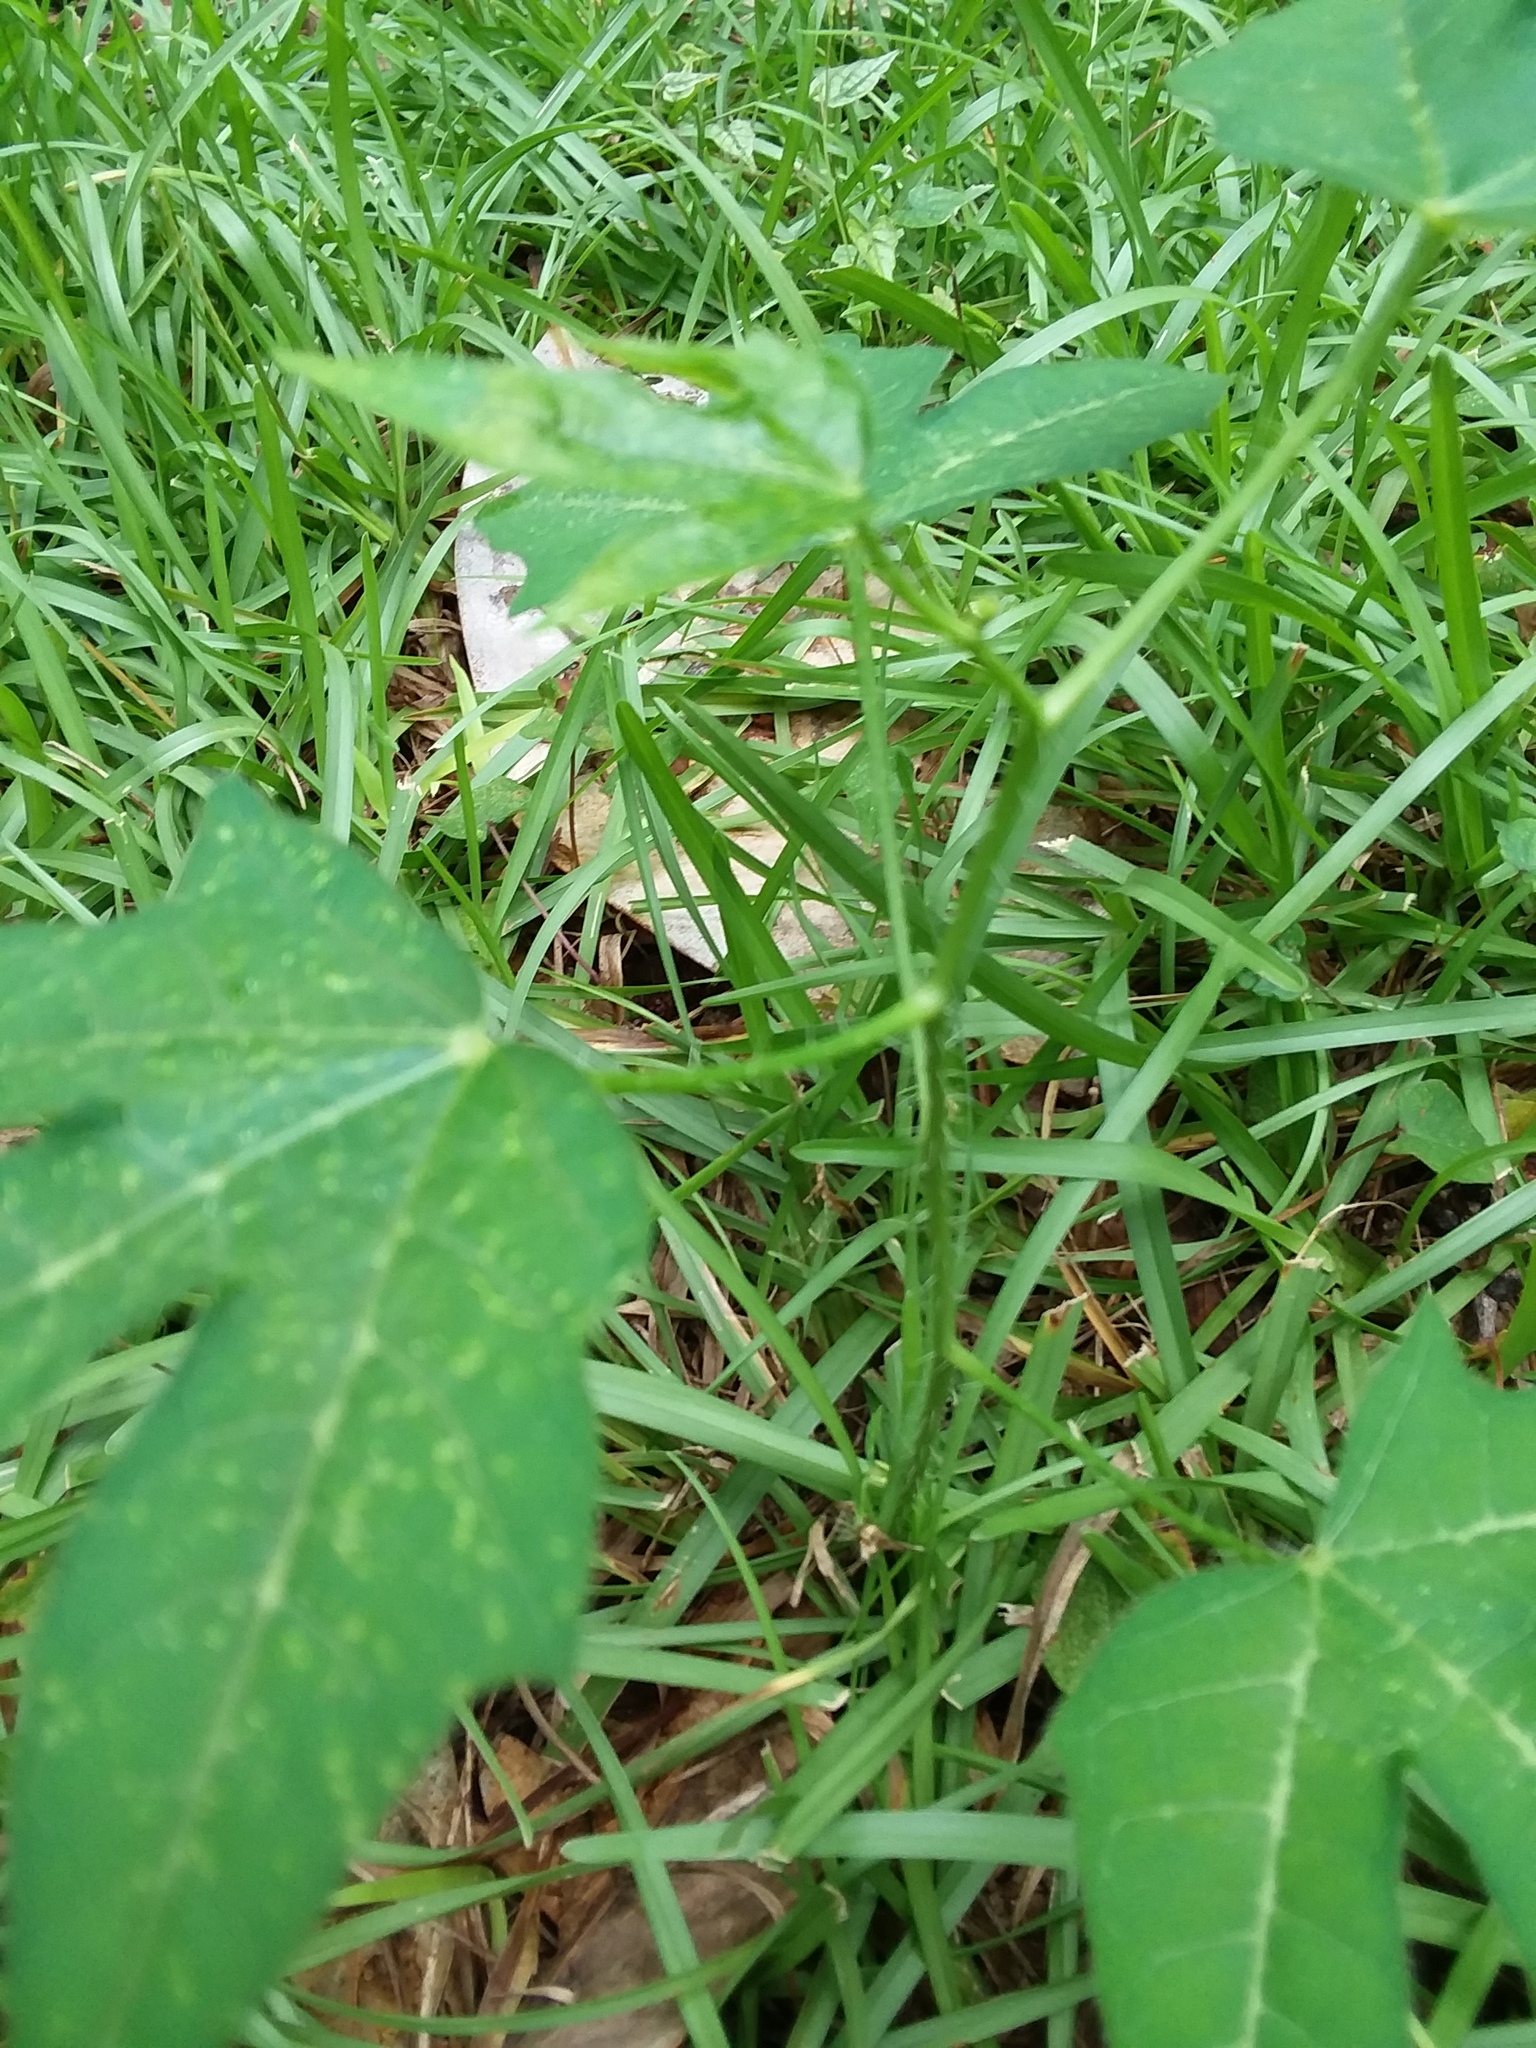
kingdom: Plantae
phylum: Tracheophyta
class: Magnoliopsida
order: Malpighiales
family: Euphorbiaceae
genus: Cnidoscolus
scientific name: Cnidoscolus stimulosus
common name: Bull-nettle
